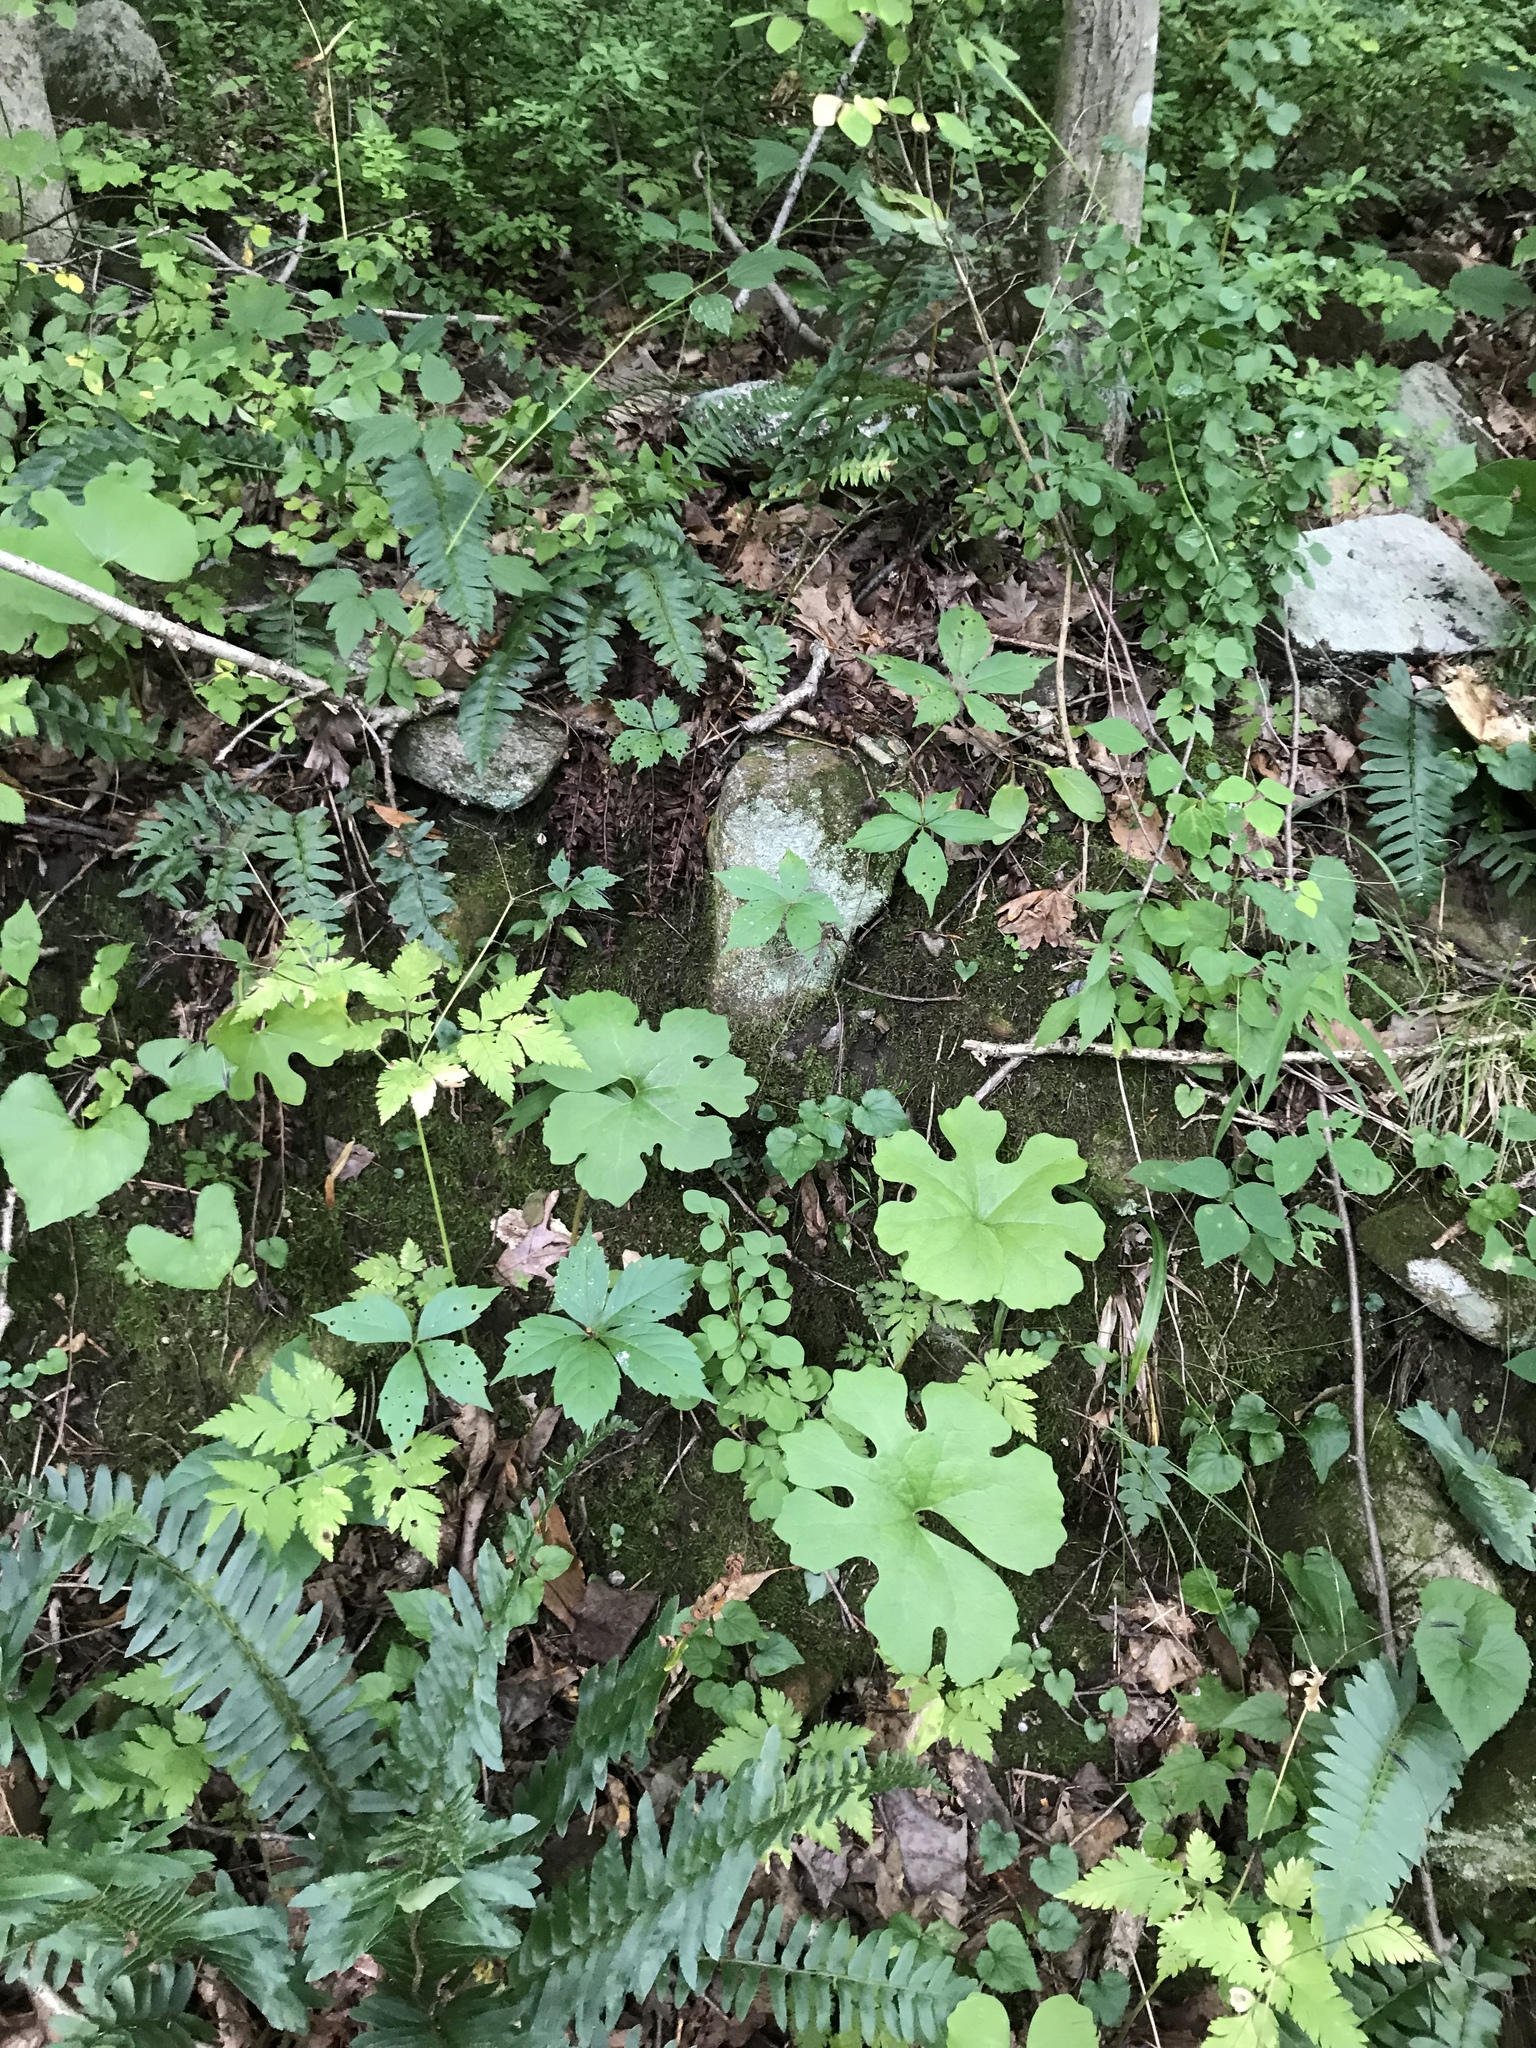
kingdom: Plantae
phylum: Tracheophyta
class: Magnoliopsida
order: Ranunculales
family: Papaveraceae
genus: Sanguinaria
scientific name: Sanguinaria canadensis
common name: Bloodroot
